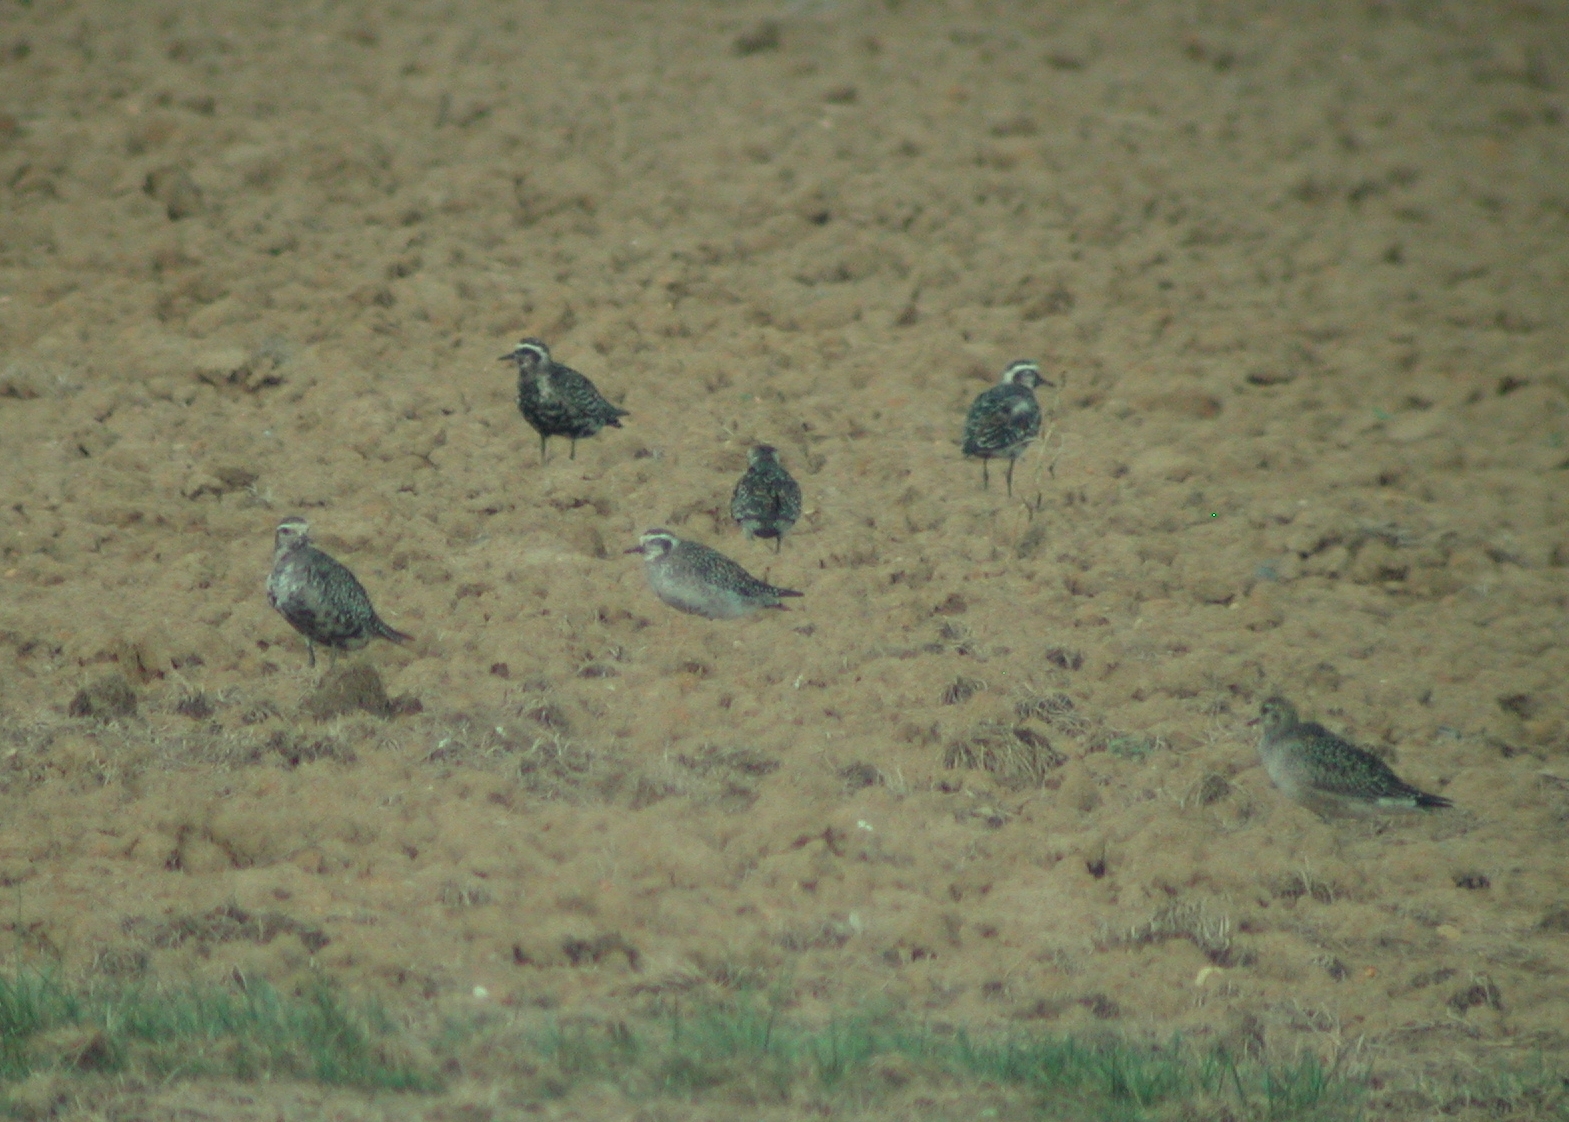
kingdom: Animalia
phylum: Chordata
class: Aves
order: Charadriiformes
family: Charadriidae
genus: Pluvialis
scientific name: Pluvialis dominica
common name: American golden plover
